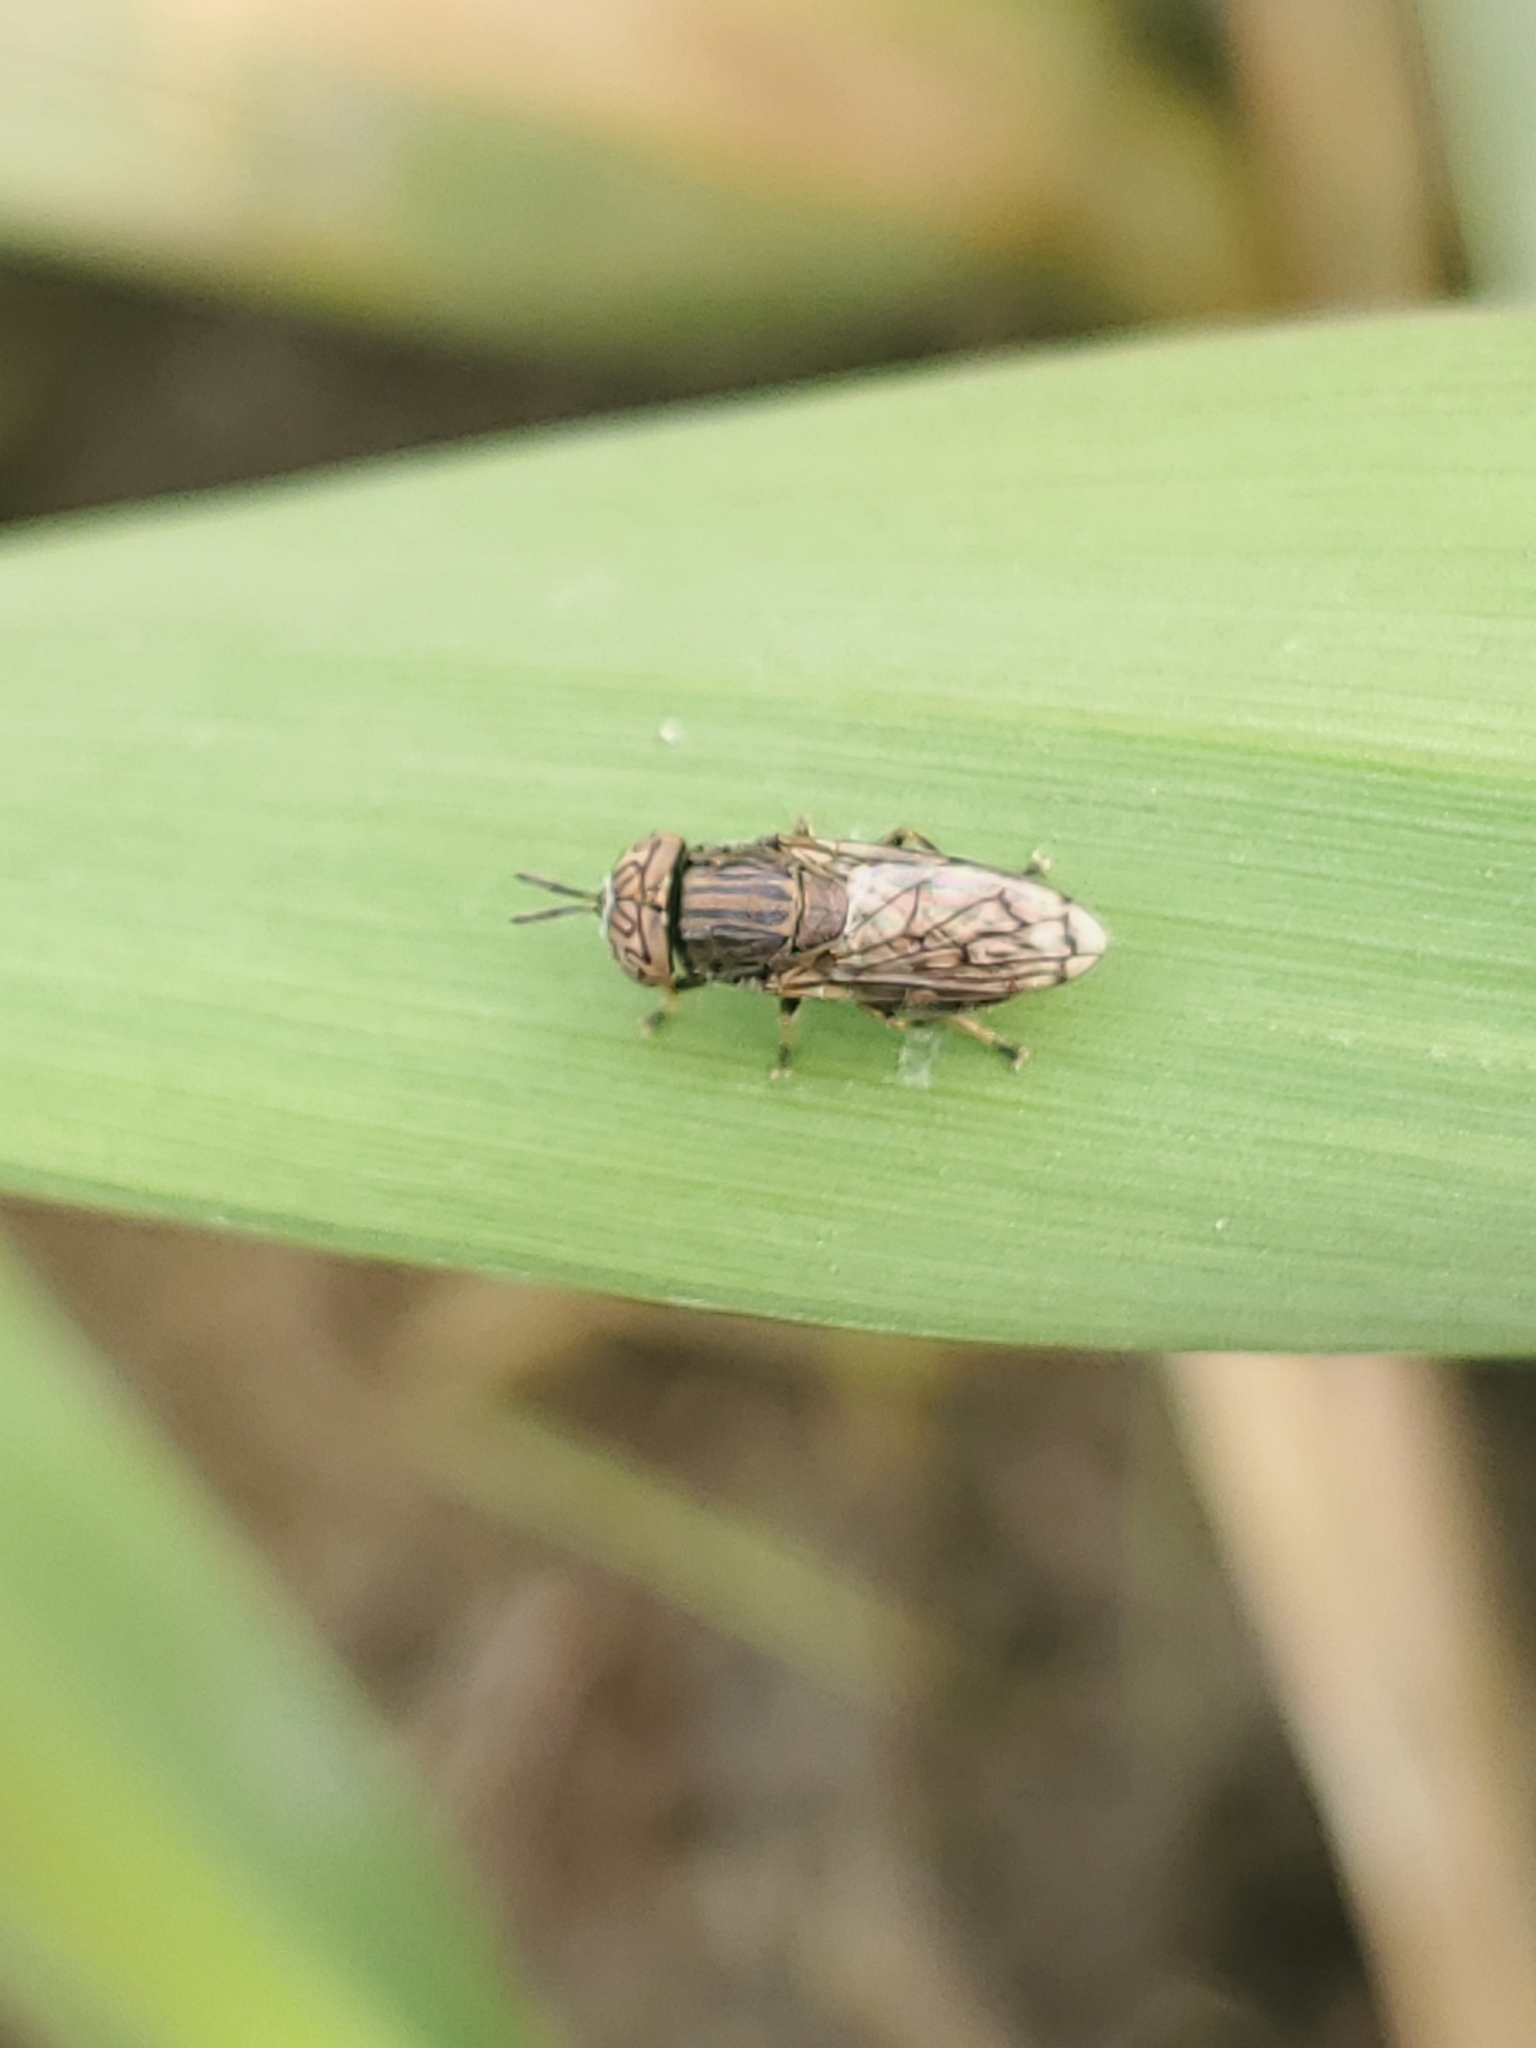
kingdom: Animalia
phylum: Arthropoda
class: Insecta
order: Diptera
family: Syrphidae
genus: Orthonevra
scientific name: Orthonevra nitida
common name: Wavy mucksucker
